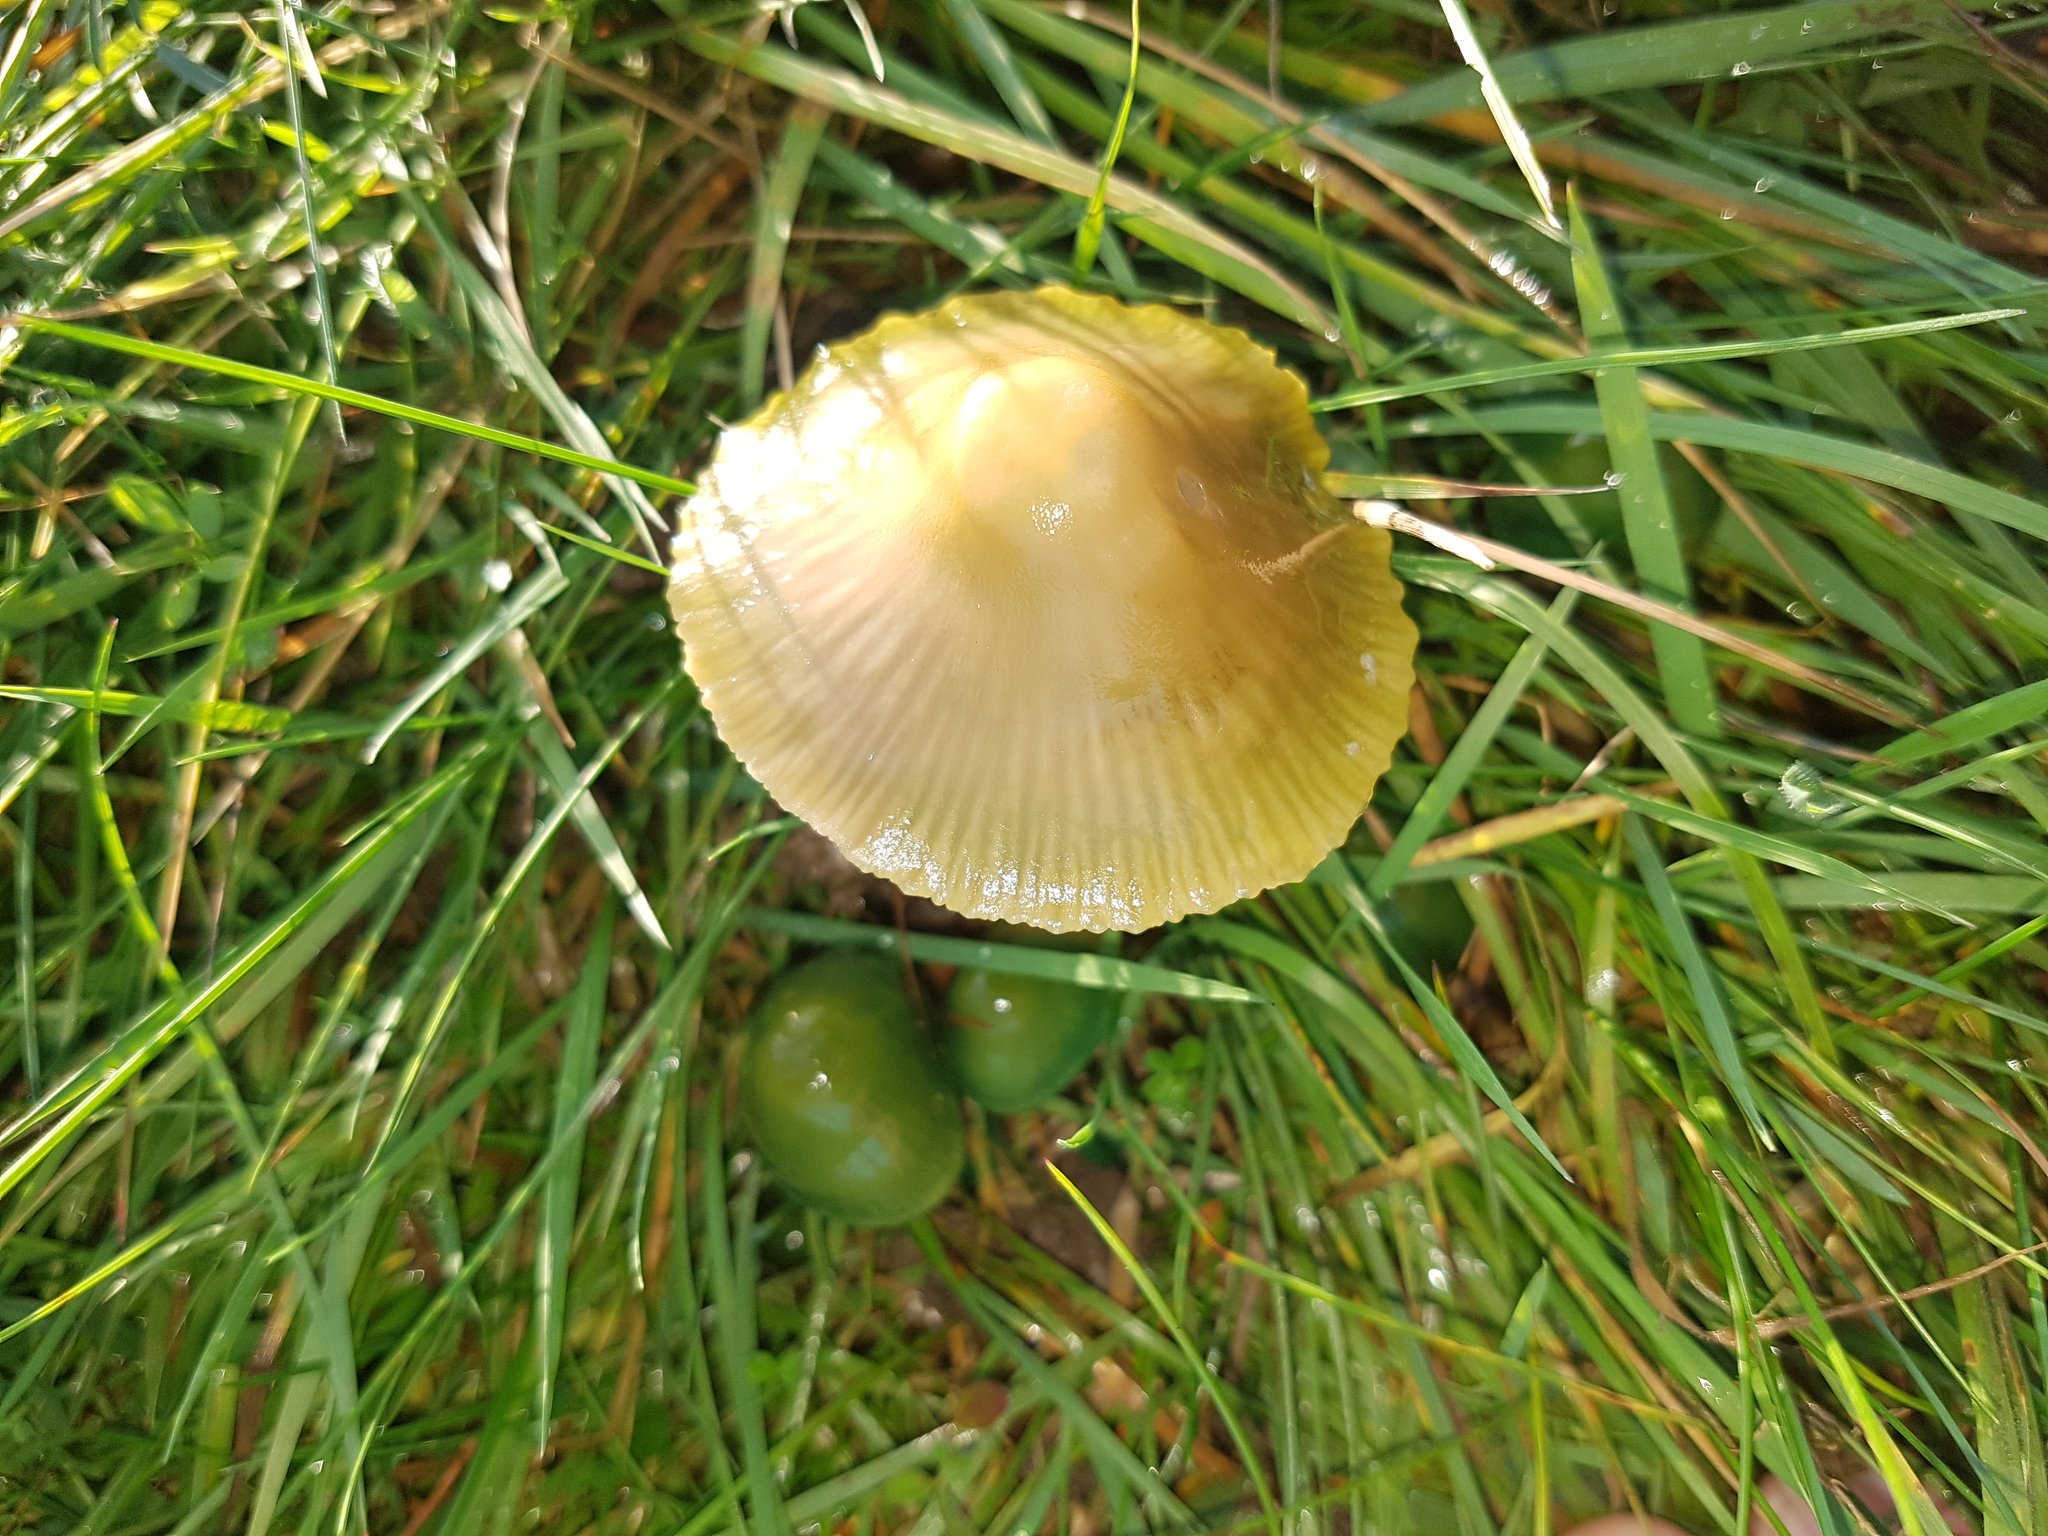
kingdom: Fungi
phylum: Basidiomycota
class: Agaricomycetes
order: Agaricales
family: Hygrophoraceae
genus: Gliophorus
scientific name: Gliophorus psittacinus
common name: Parrot wax-cap
